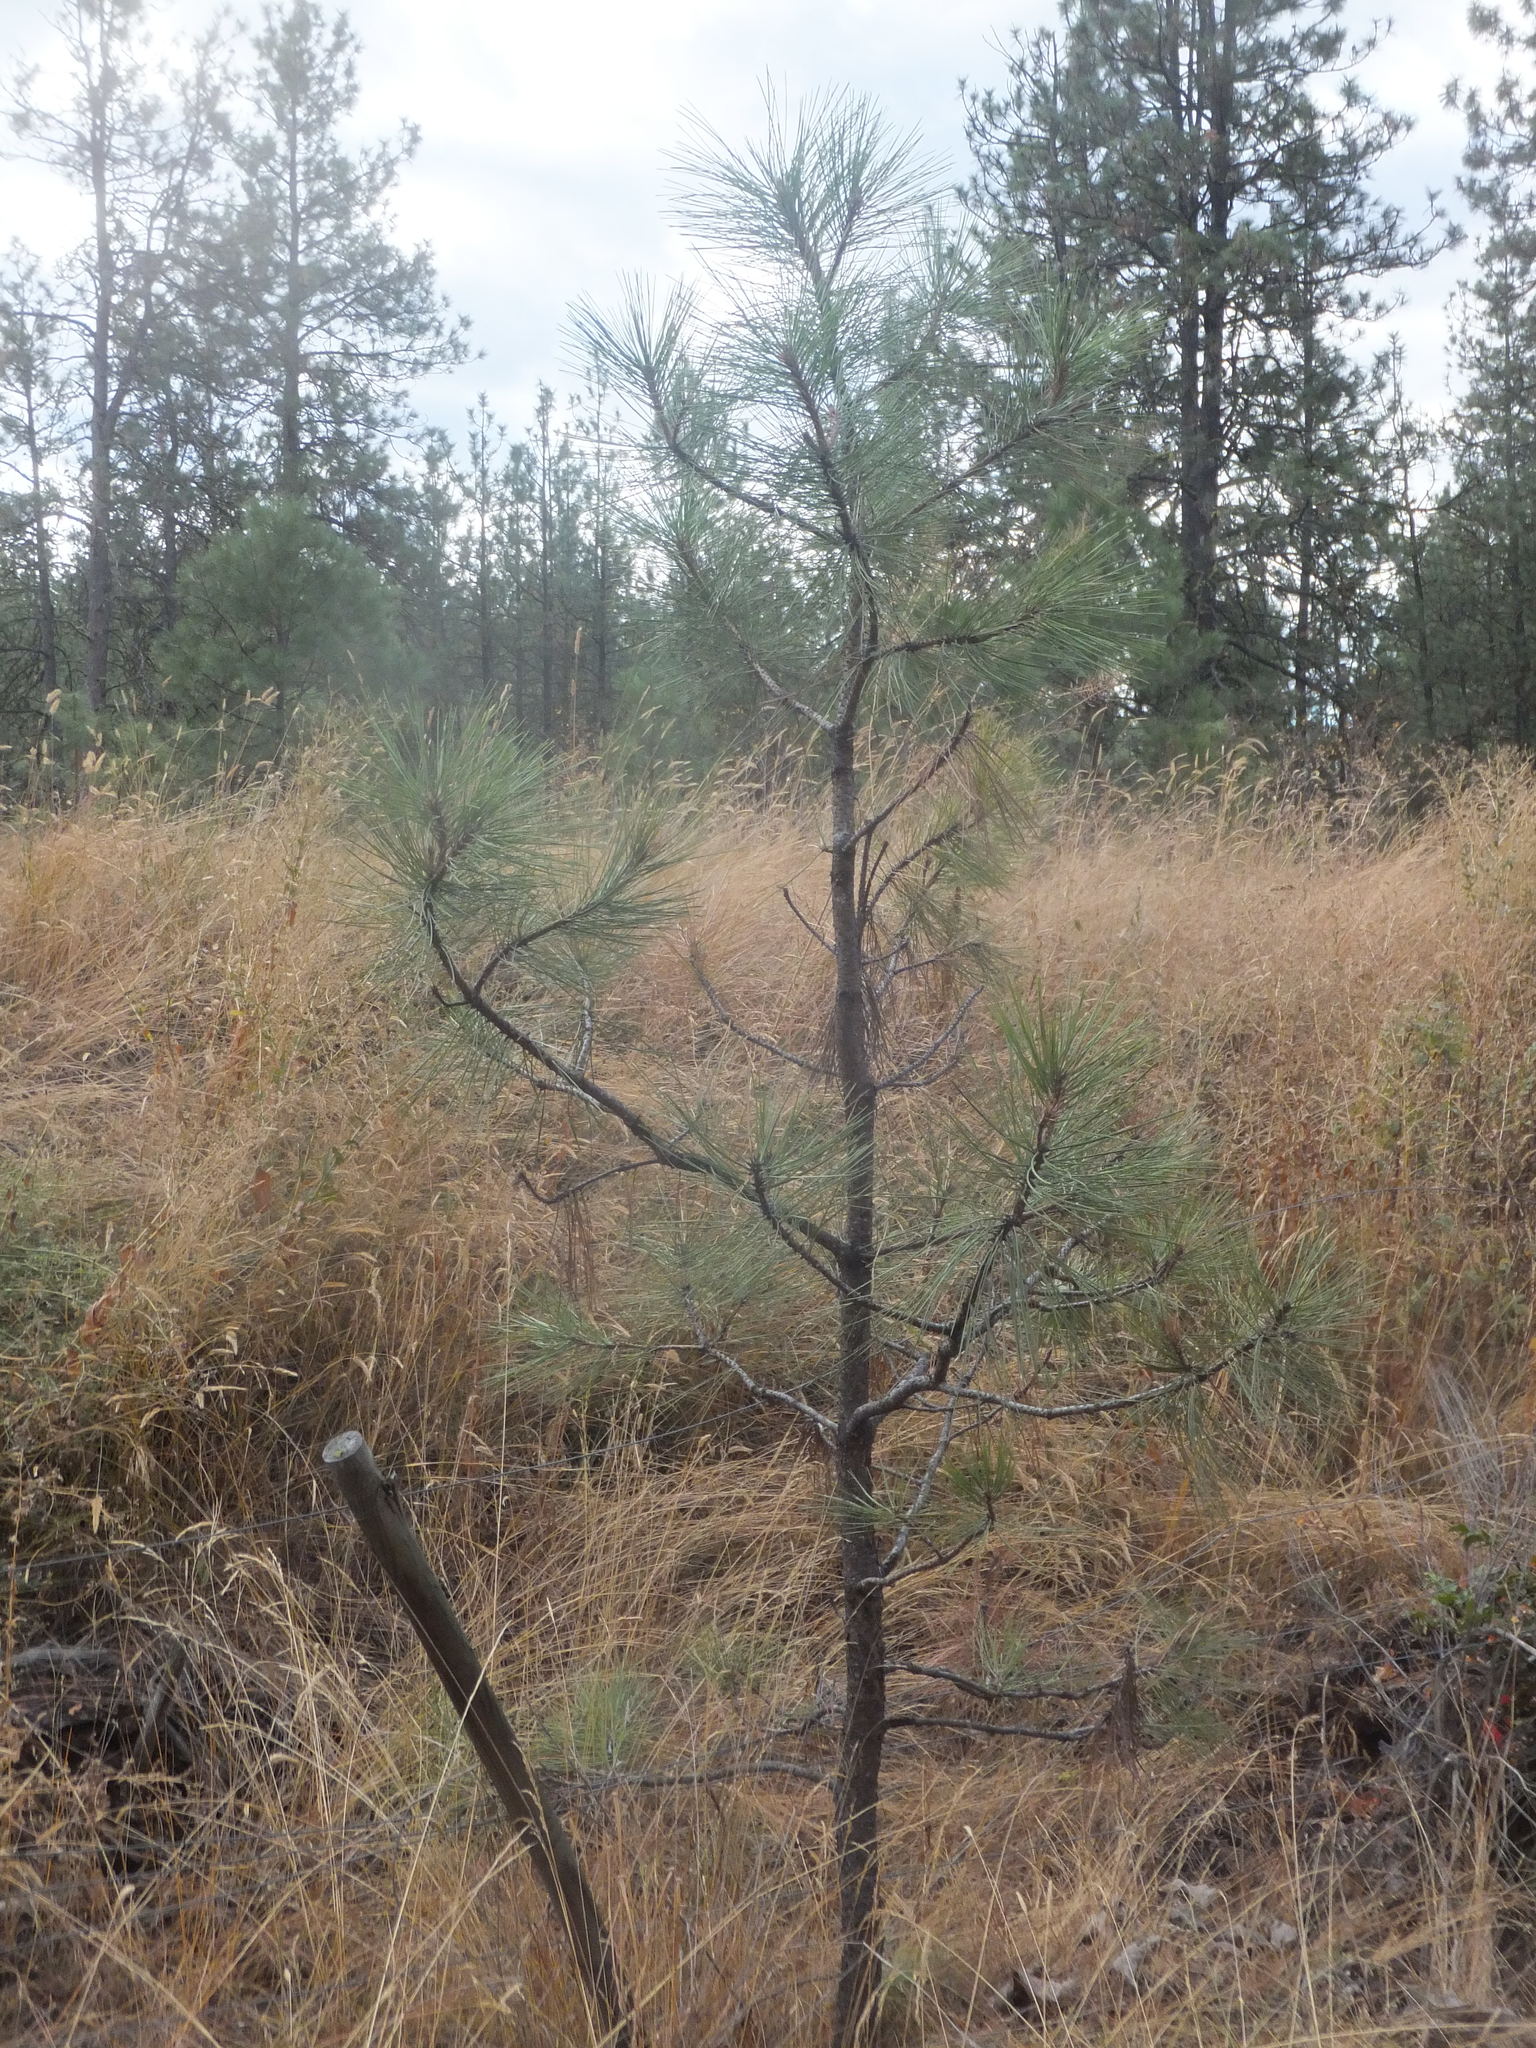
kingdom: Plantae
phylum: Tracheophyta
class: Pinopsida
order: Pinales
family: Pinaceae
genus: Pinus
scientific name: Pinus ponderosa
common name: Western yellow-pine
